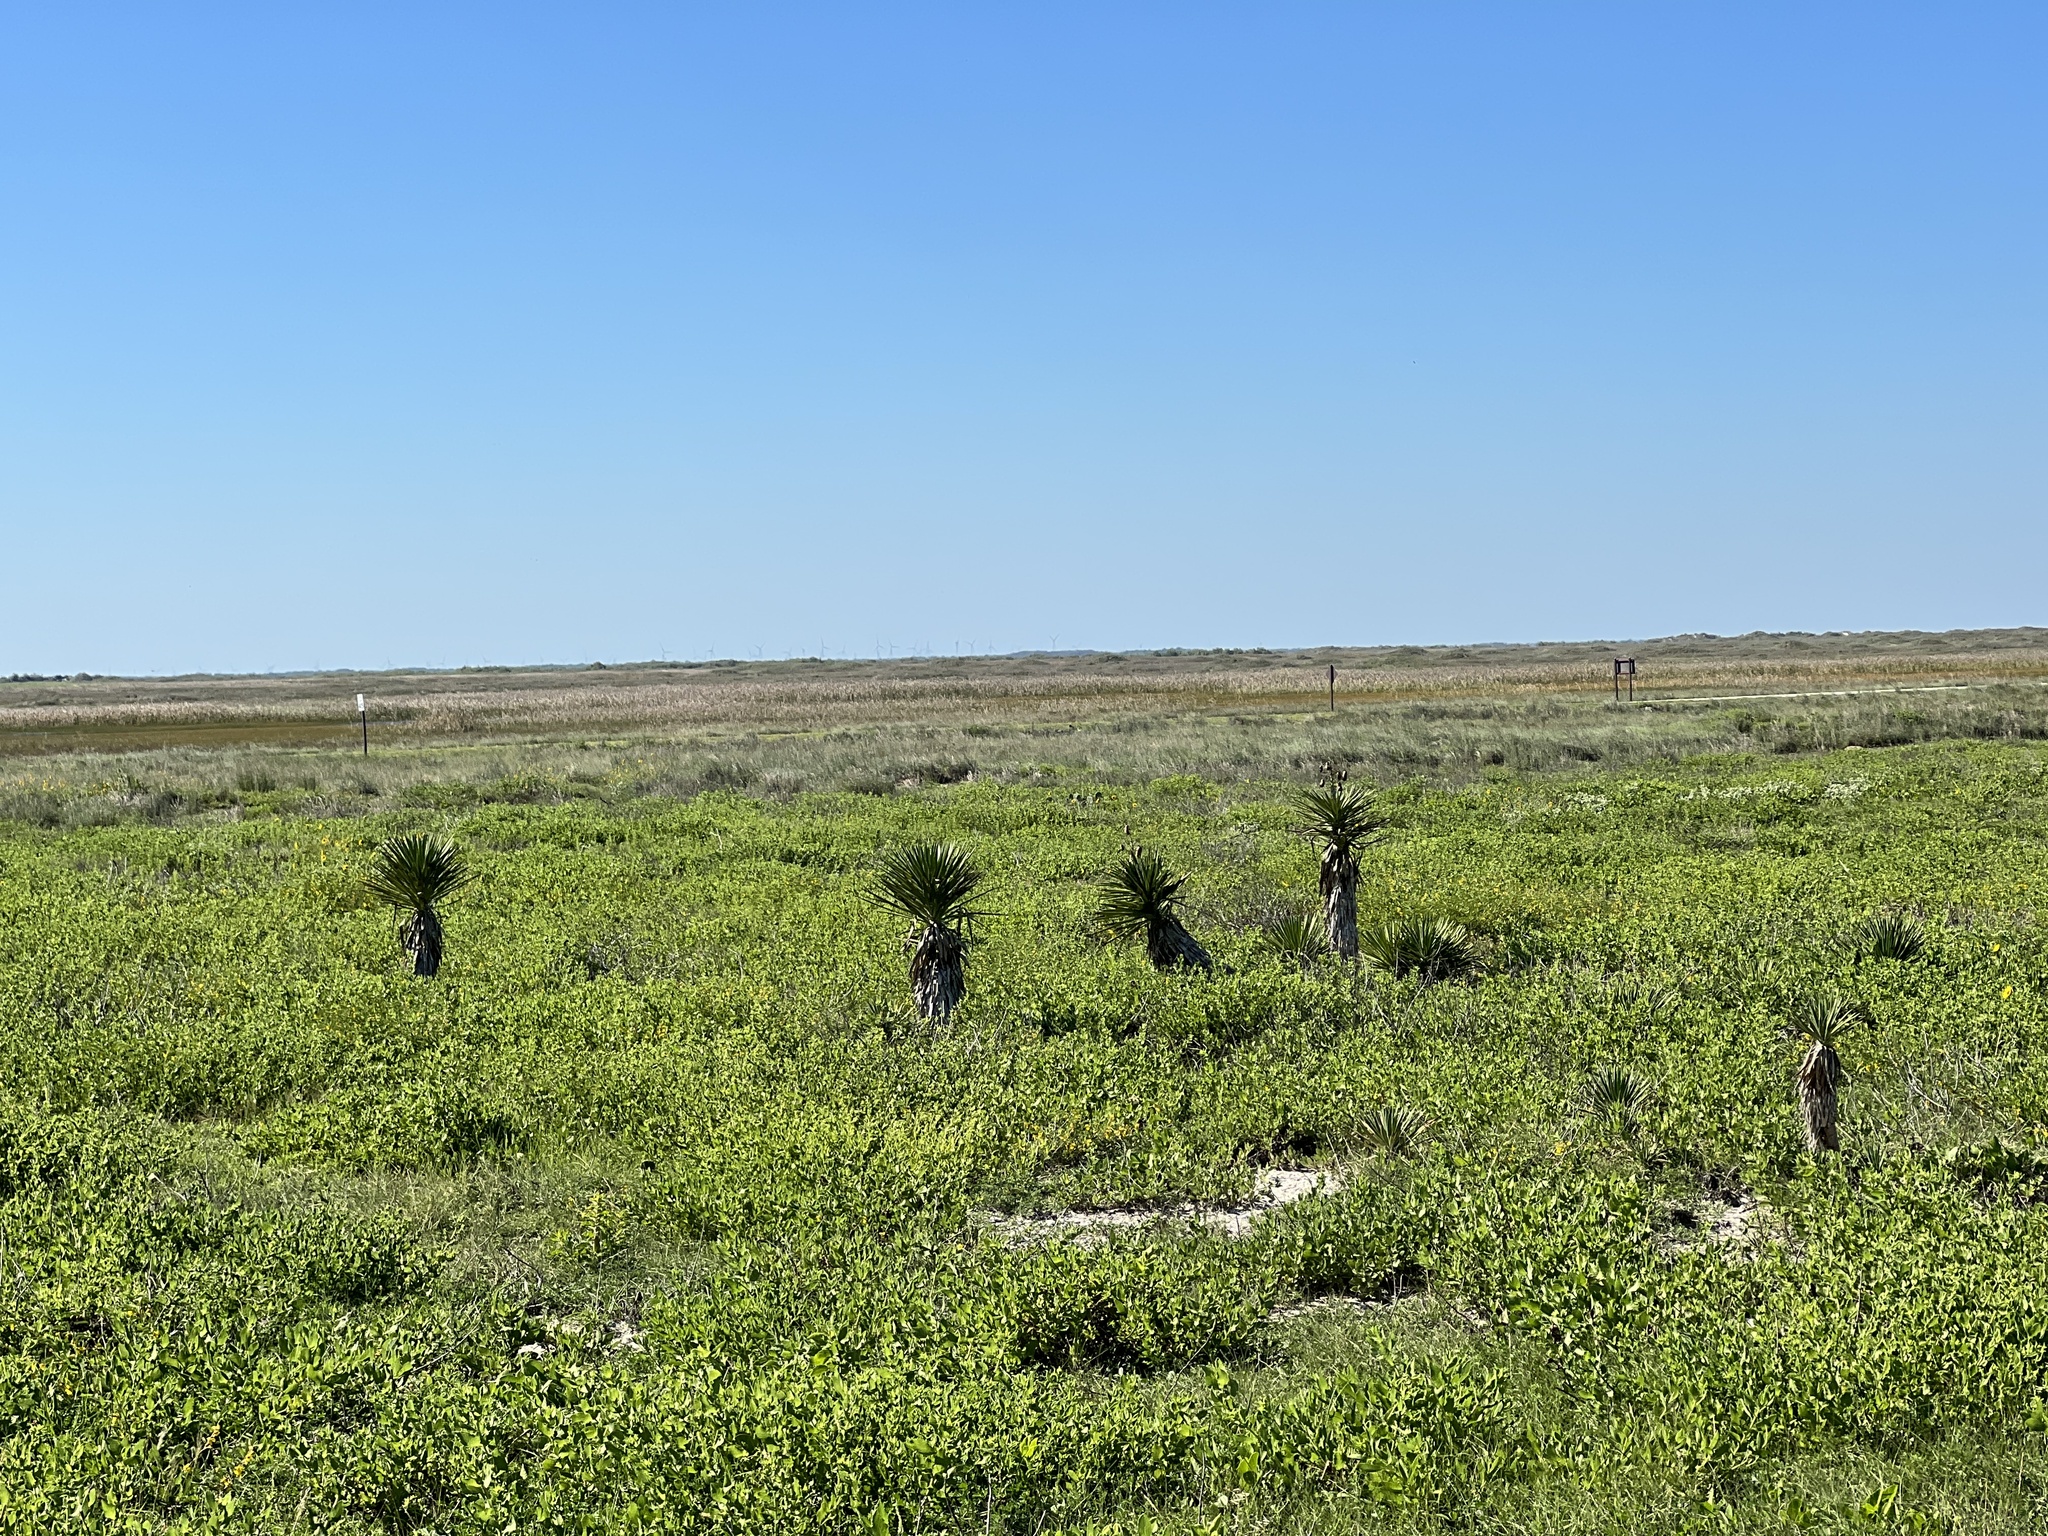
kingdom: Plantae
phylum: Tracheophyta
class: Liliopsida
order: Asparagales
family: Asparagaceae
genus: Yucca
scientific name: Yucca aloifolia
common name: Aloe yucca
